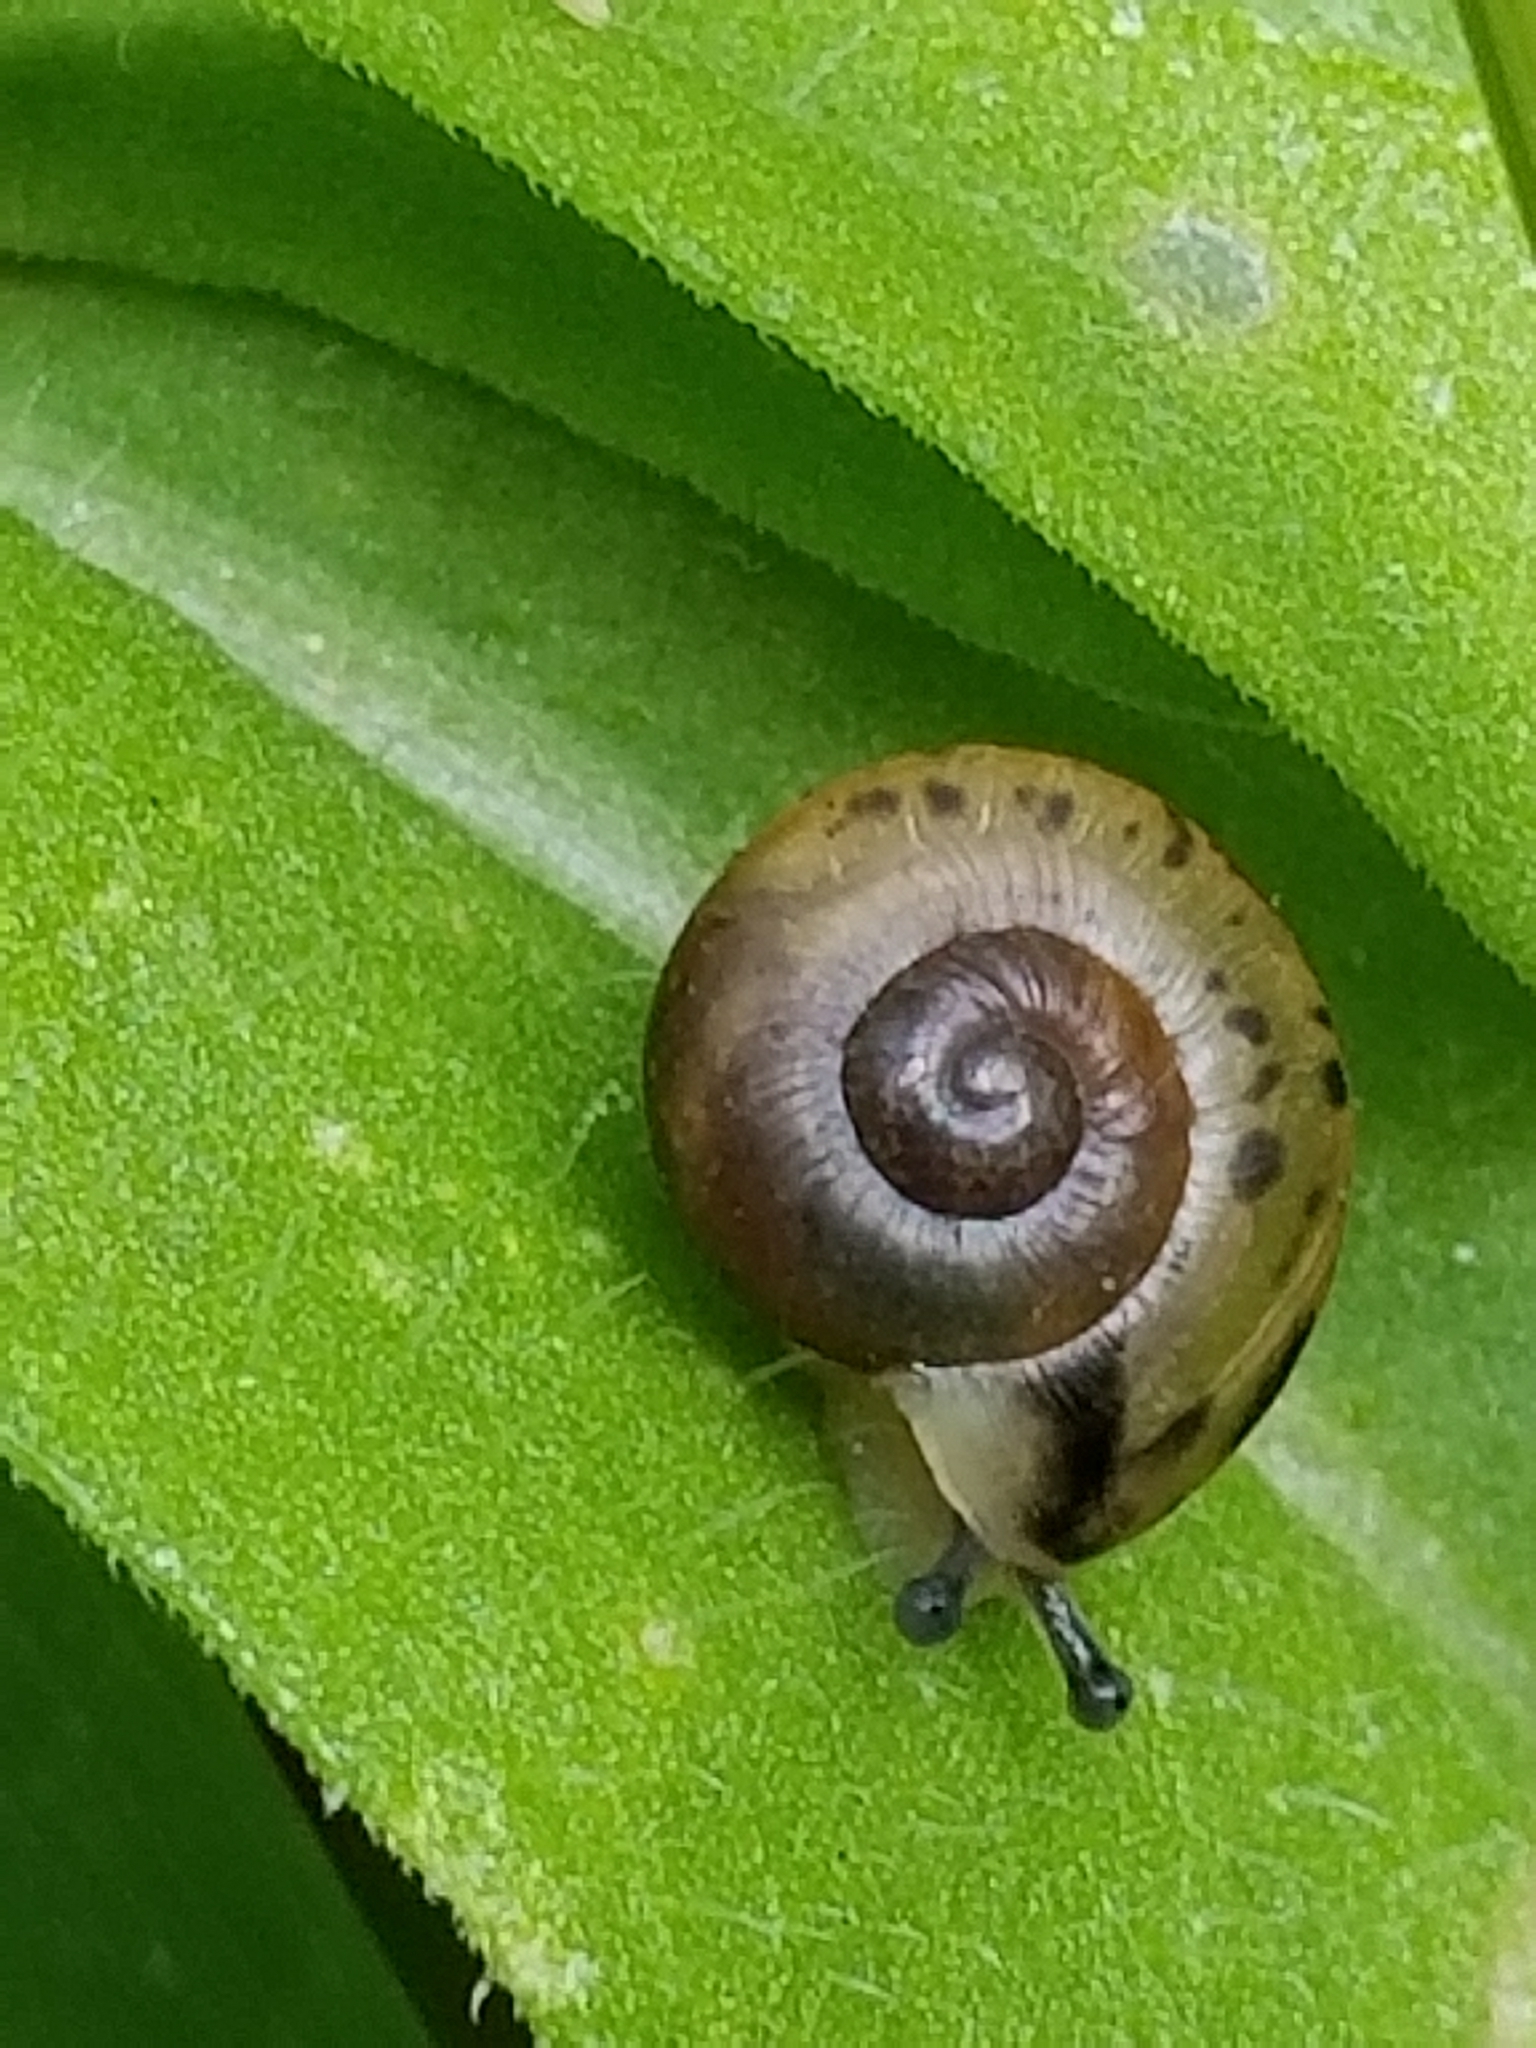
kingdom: Animalia
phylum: Mollusca
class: Gastropoda
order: Stylommatophora
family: Camaenidae
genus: Bradybaena
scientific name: Bradybaena similaris
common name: Asian trampsnail
